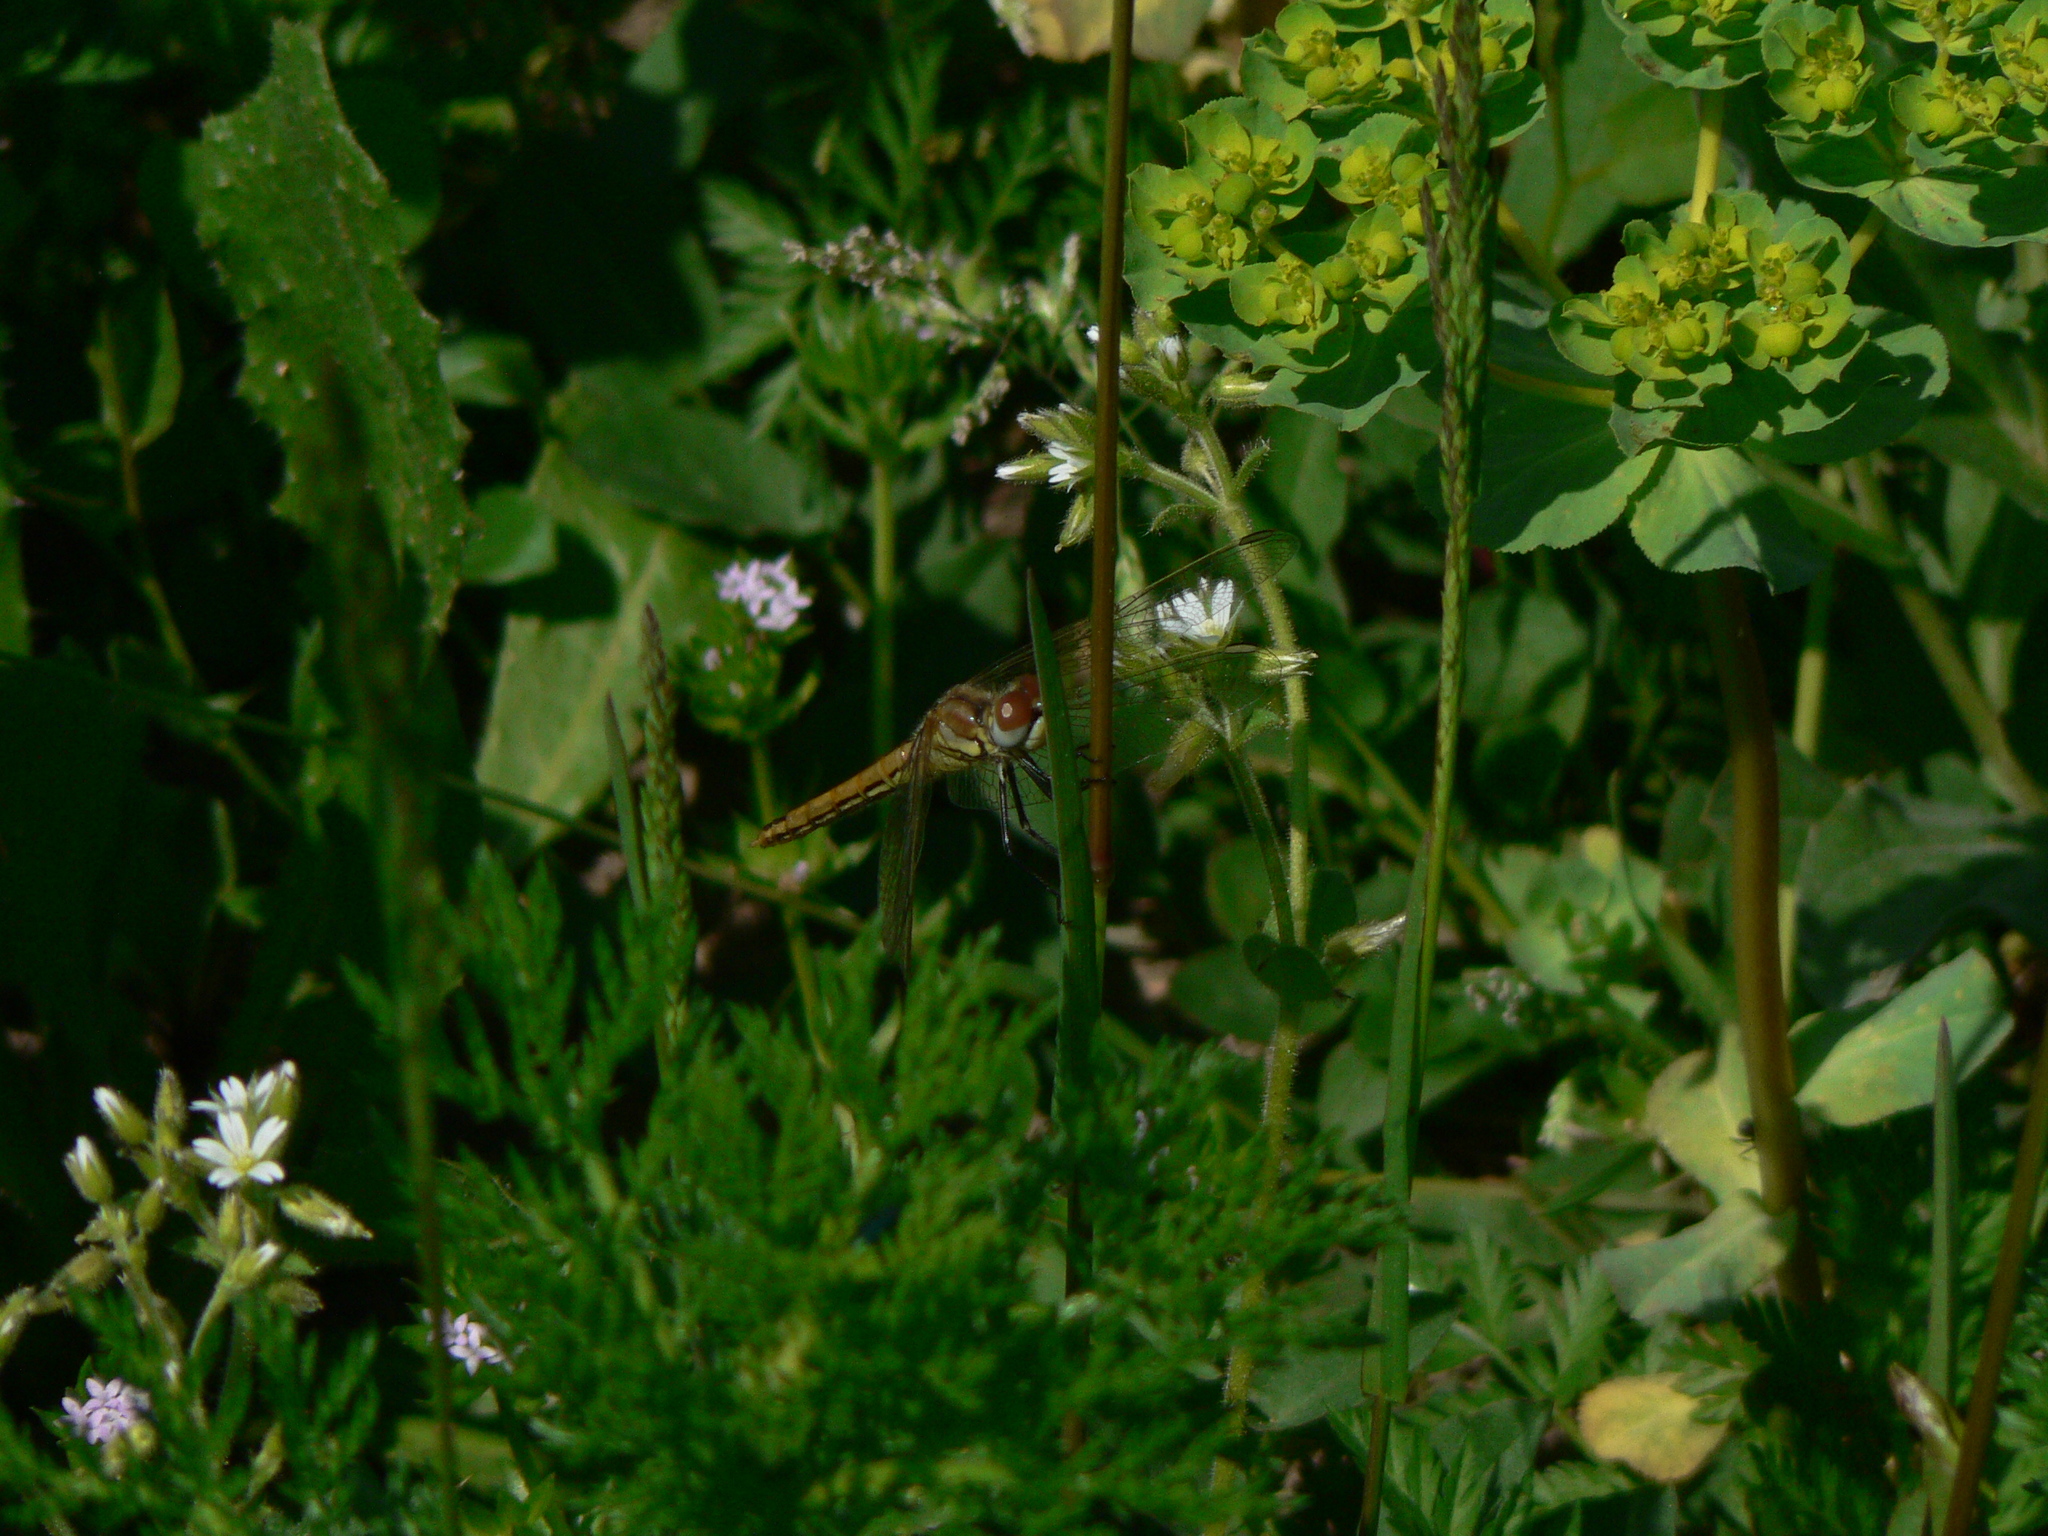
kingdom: Animalia
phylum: Arthropoda
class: Insecta
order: Odonata
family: Libellulidae
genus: Sympetrum
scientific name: Sympetrum fonscolombii
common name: Red-veined darter
